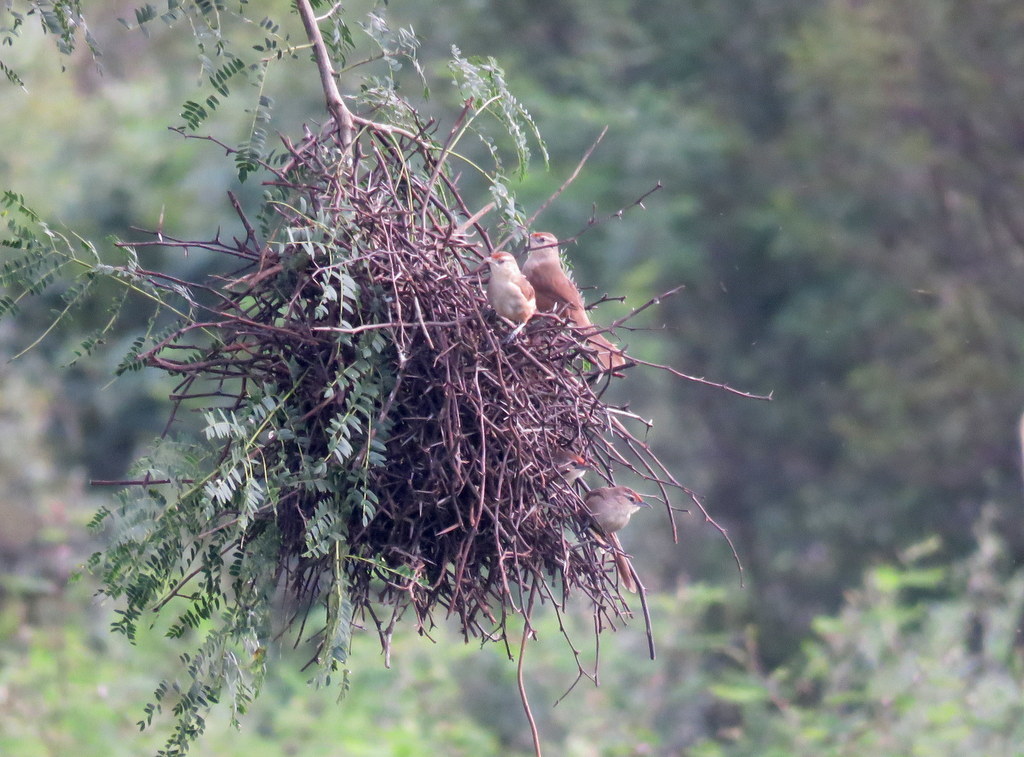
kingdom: Animalia
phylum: Chordata
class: Aves
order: Passeriformes
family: Furnariidae
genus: Phacellodomus
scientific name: Phacellodomus rufifrons
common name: Rufous-fronted thornbird
